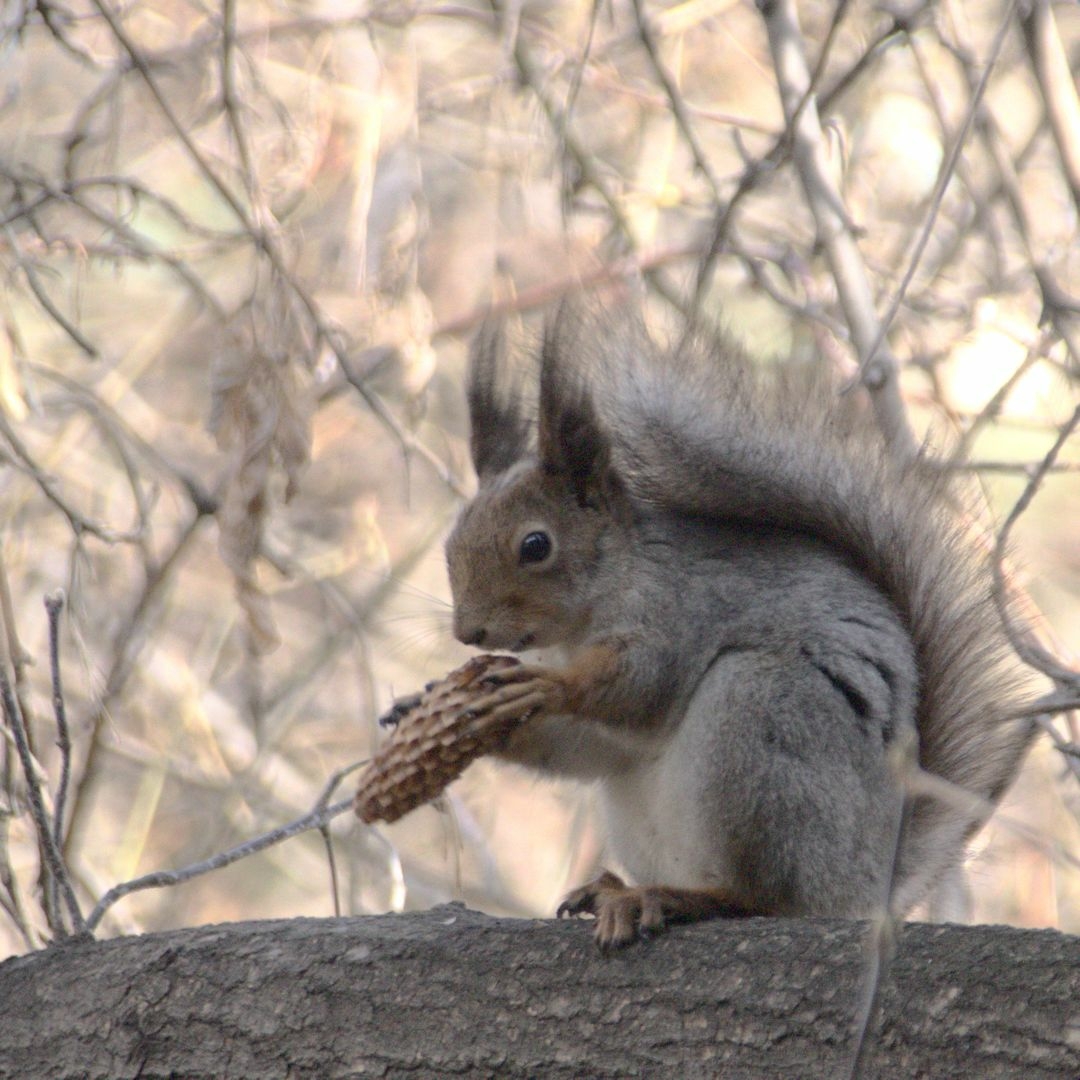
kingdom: Animalia
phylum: Chordata
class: Mammalia
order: Rodentia
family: Sciuridae
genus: Sciurus
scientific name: Sciurus vulgaris
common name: Eurasian red squirrel
